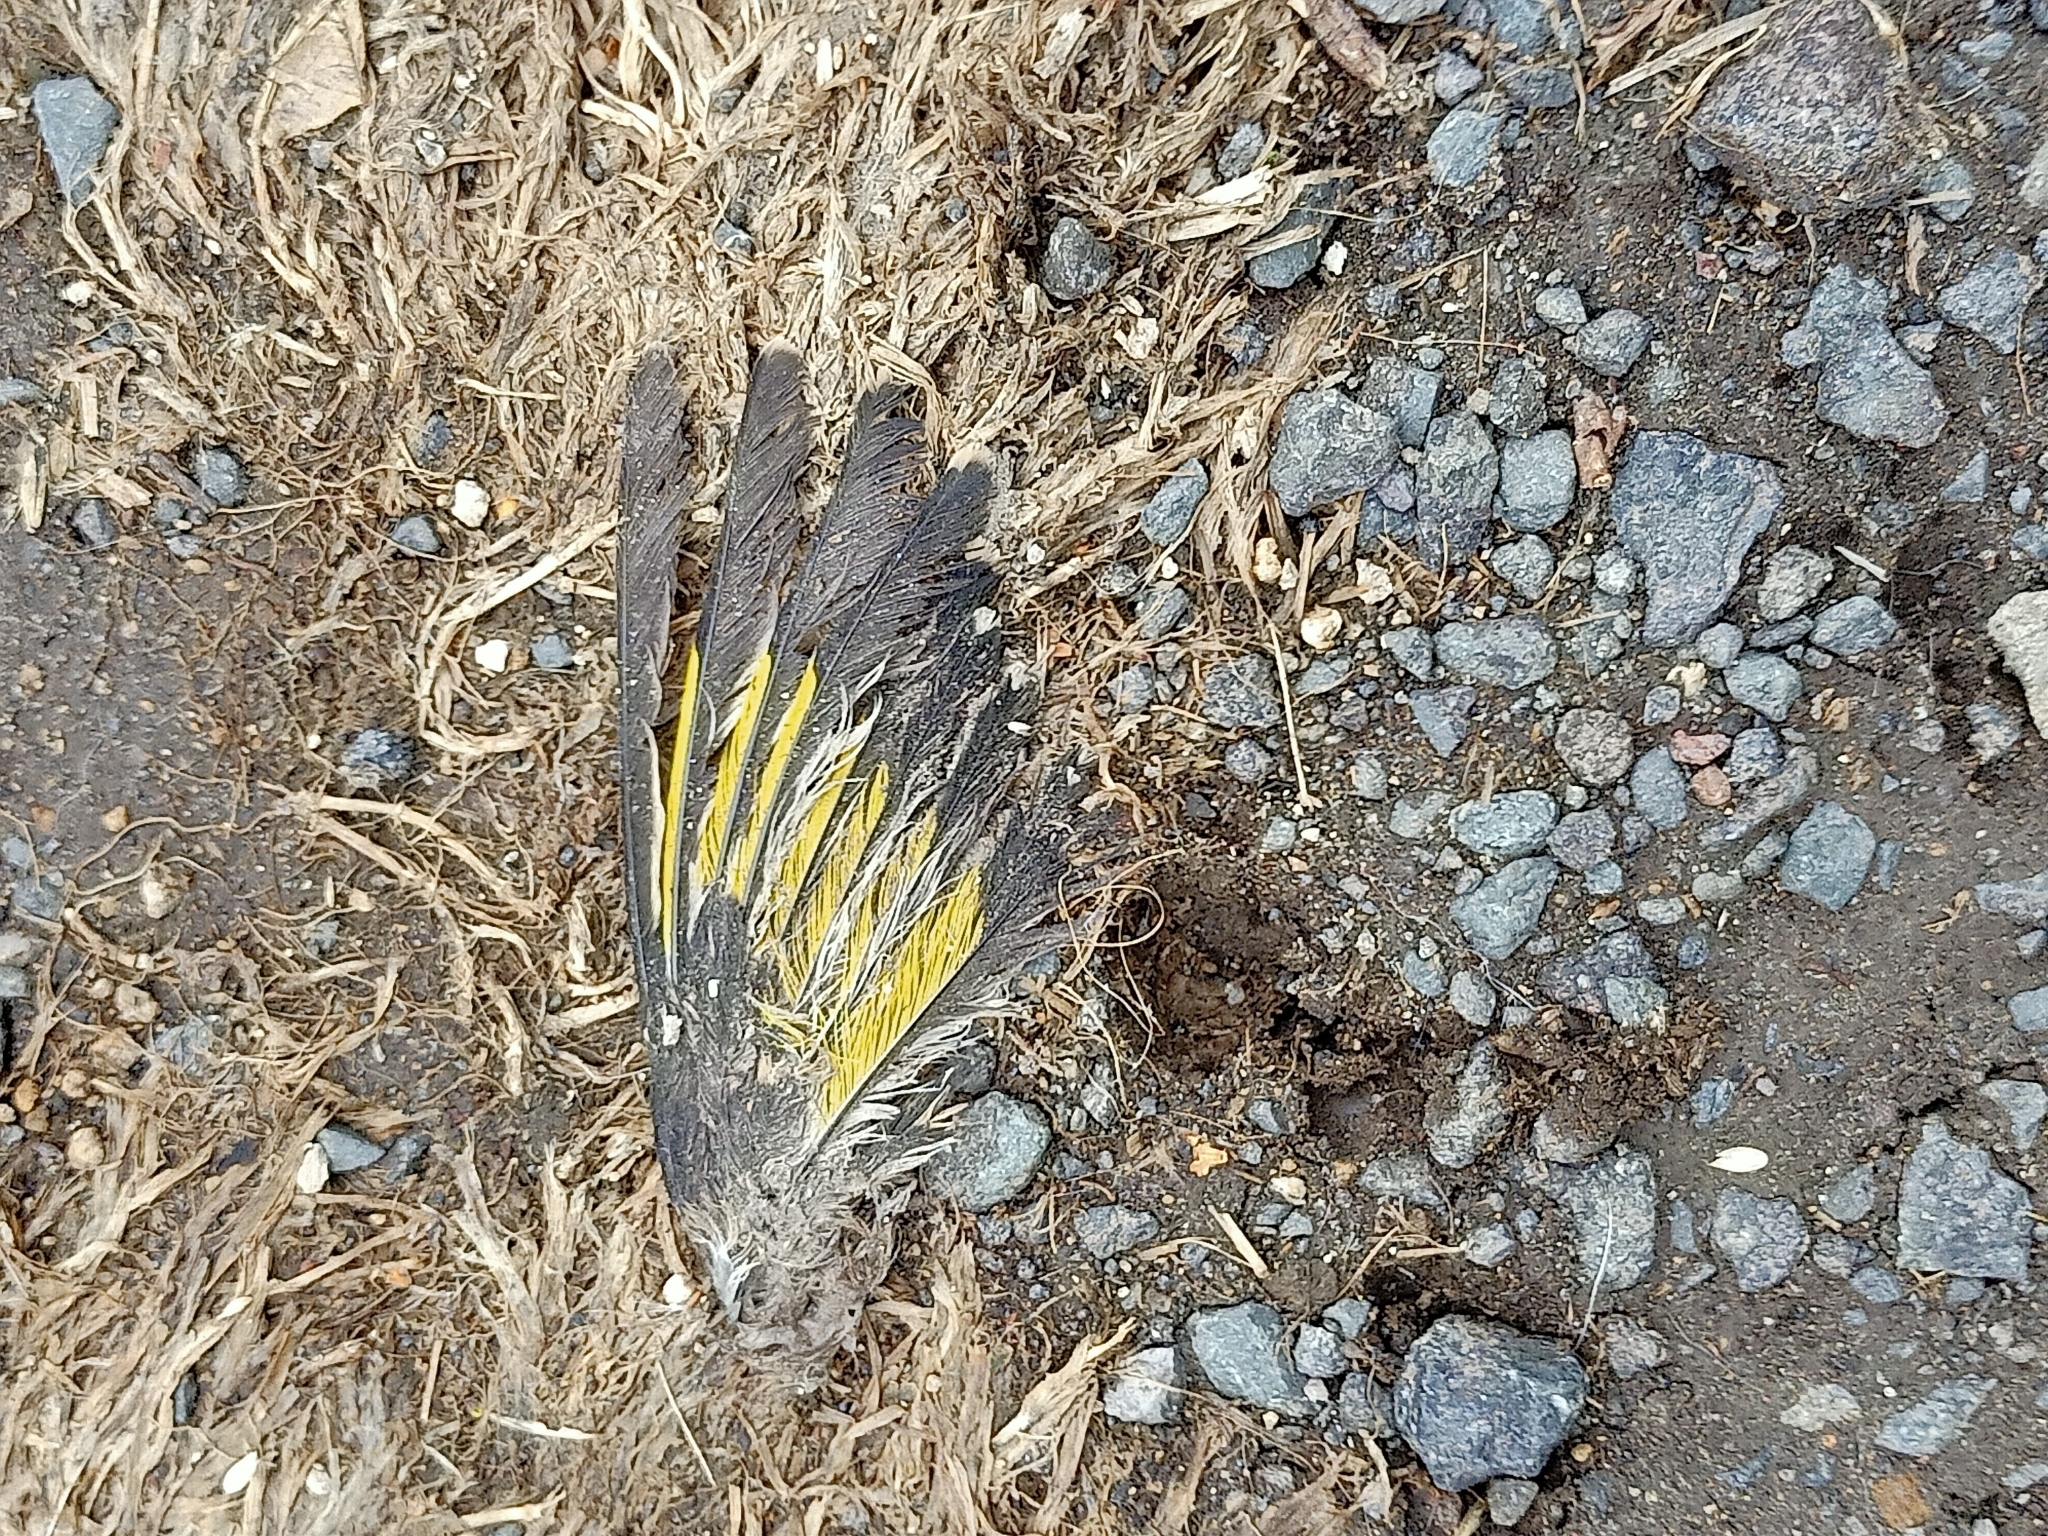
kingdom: Animalia
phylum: Chordata
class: Aves
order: Passeriformes
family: Fringillidae
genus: Carduelis
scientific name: Carduelis carduelis
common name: European goldfinch
